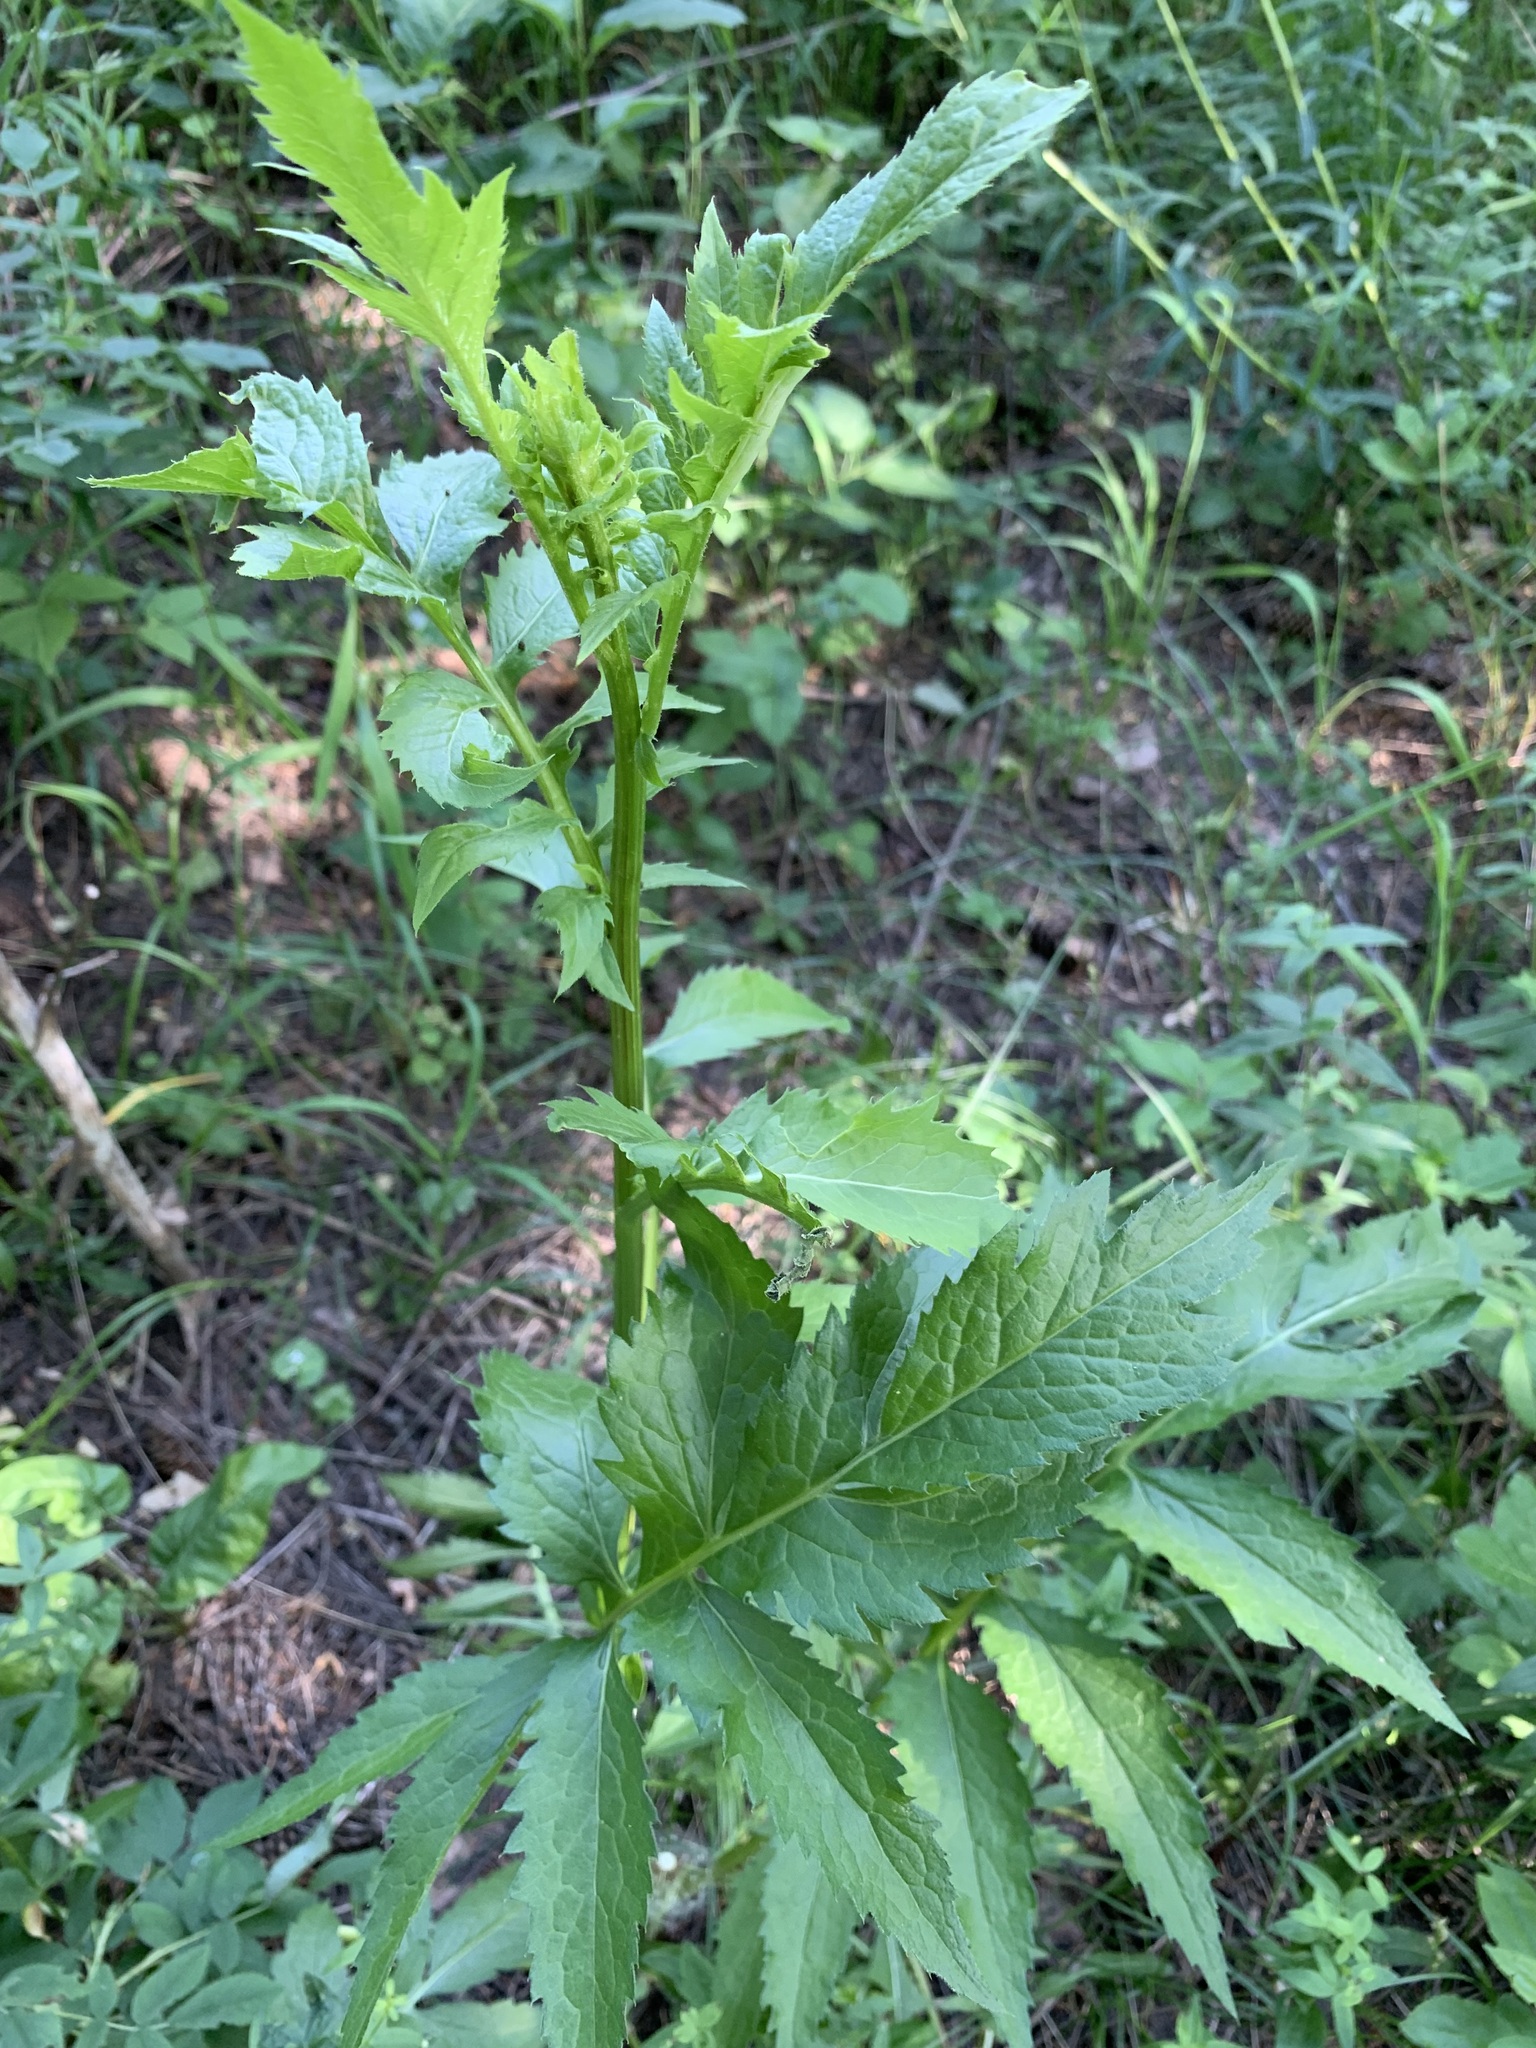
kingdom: Plantae
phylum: Tracheophyta
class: Magnoliopsida
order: Asterales
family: Asteraceae
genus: Serratula
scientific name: Serratula coronata
